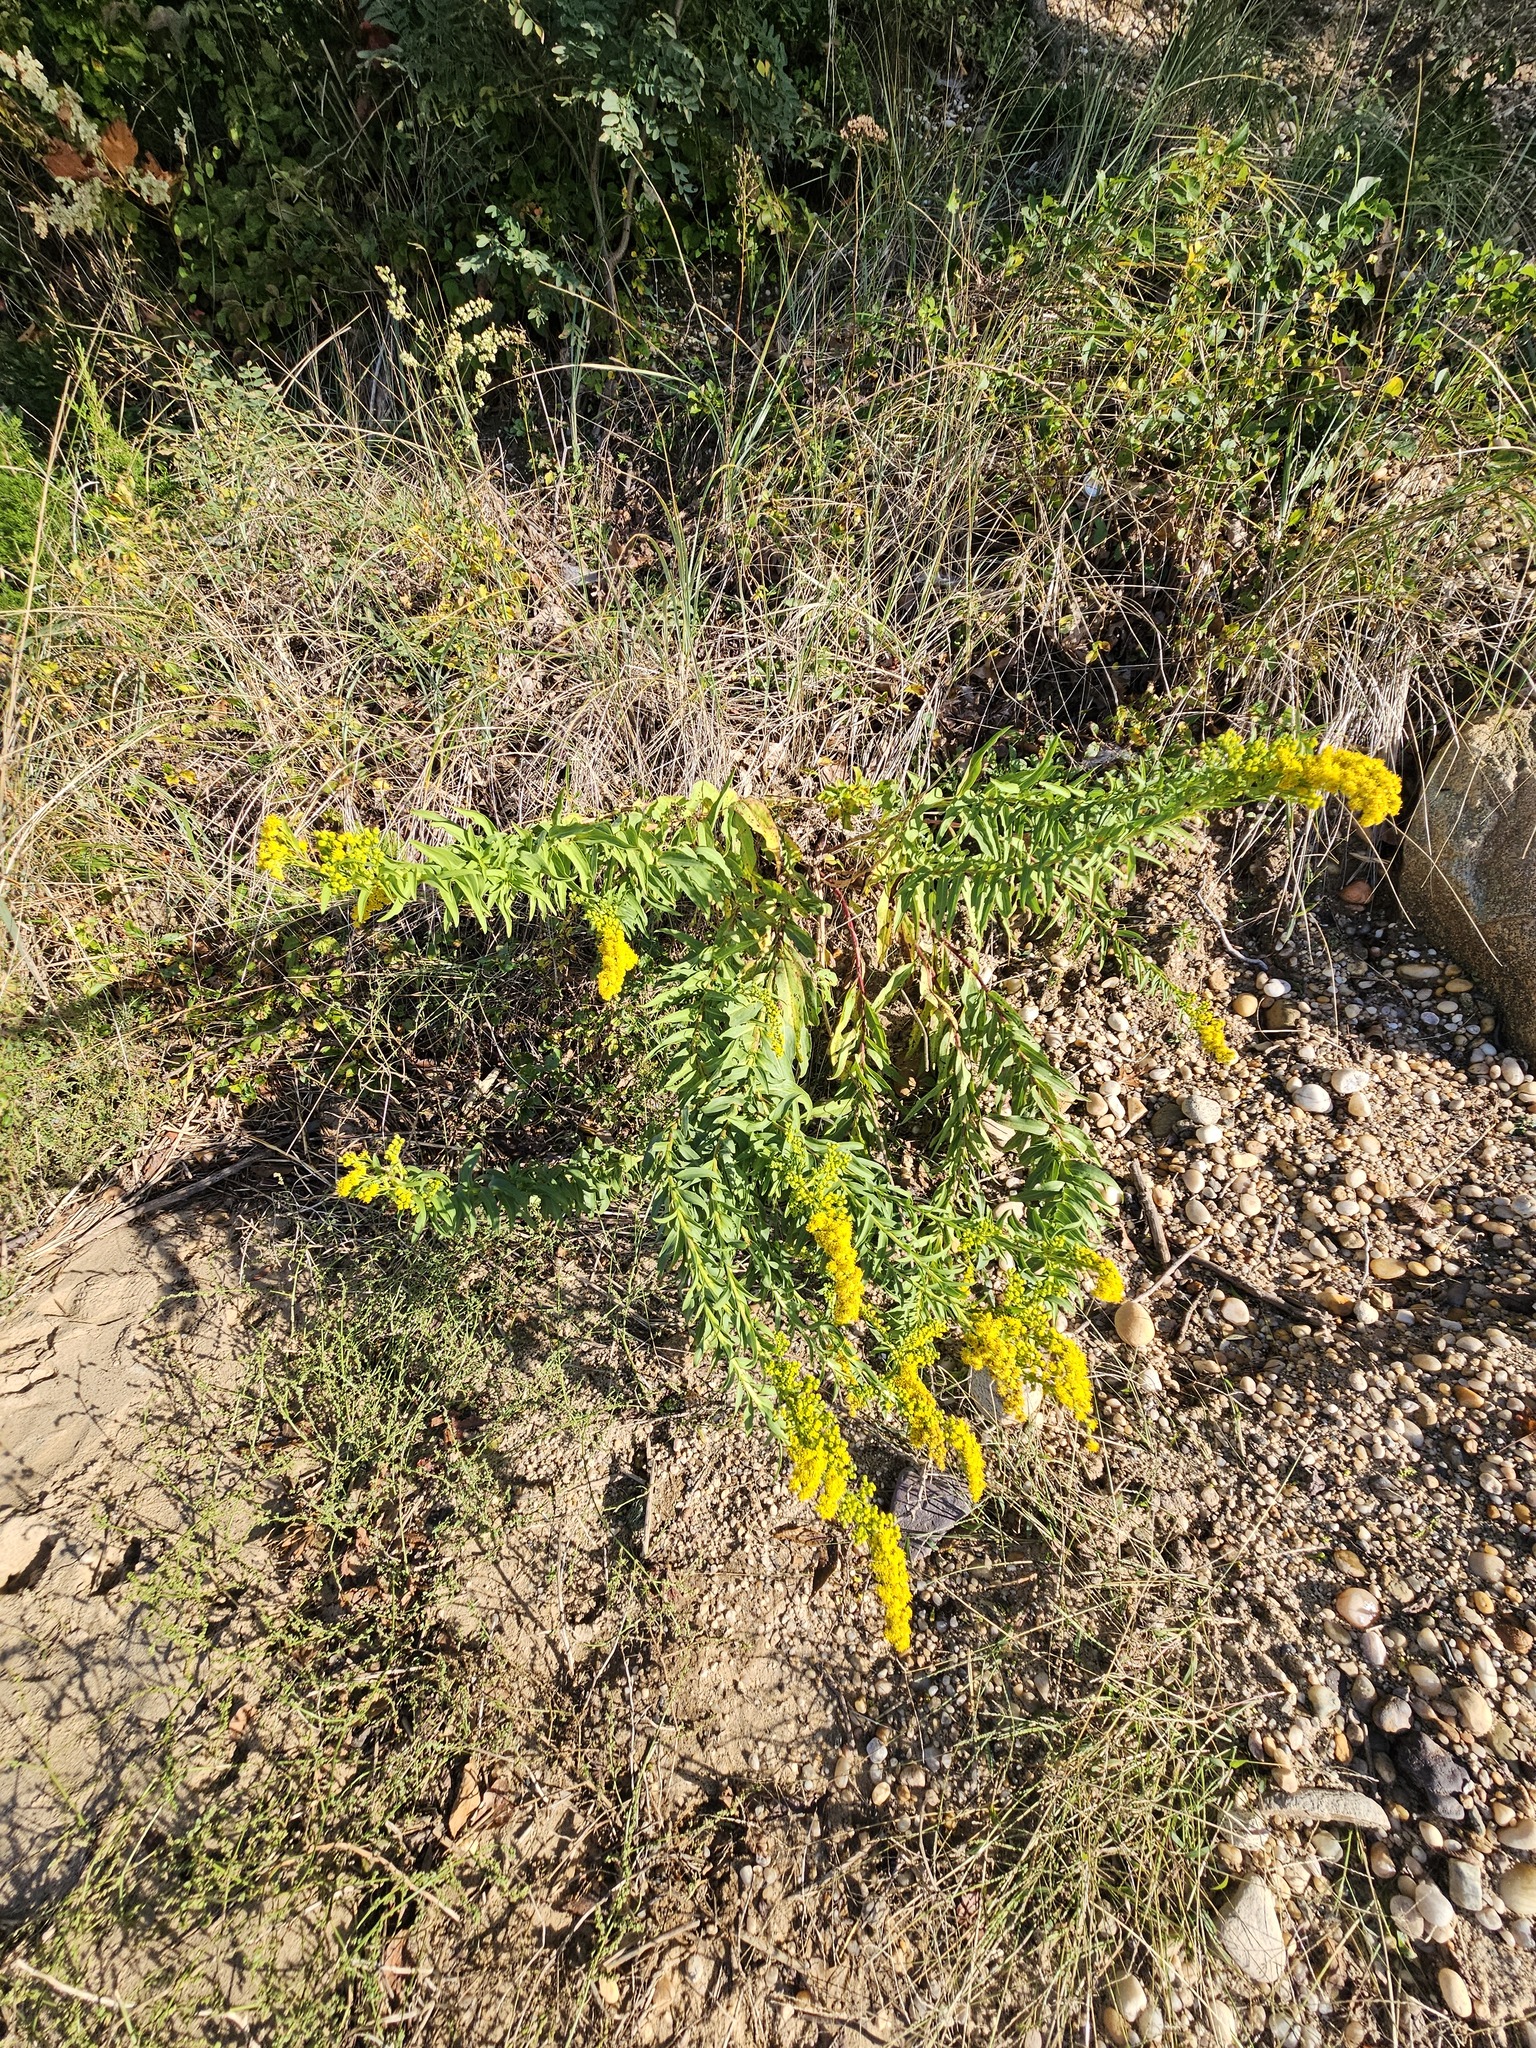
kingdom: Plantae
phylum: Tracheophyta
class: Magnoliopsida
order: Asterales
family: Asteraceae
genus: Solidago
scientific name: Solidago sempervirens
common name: Salt-marsh goldenrod
